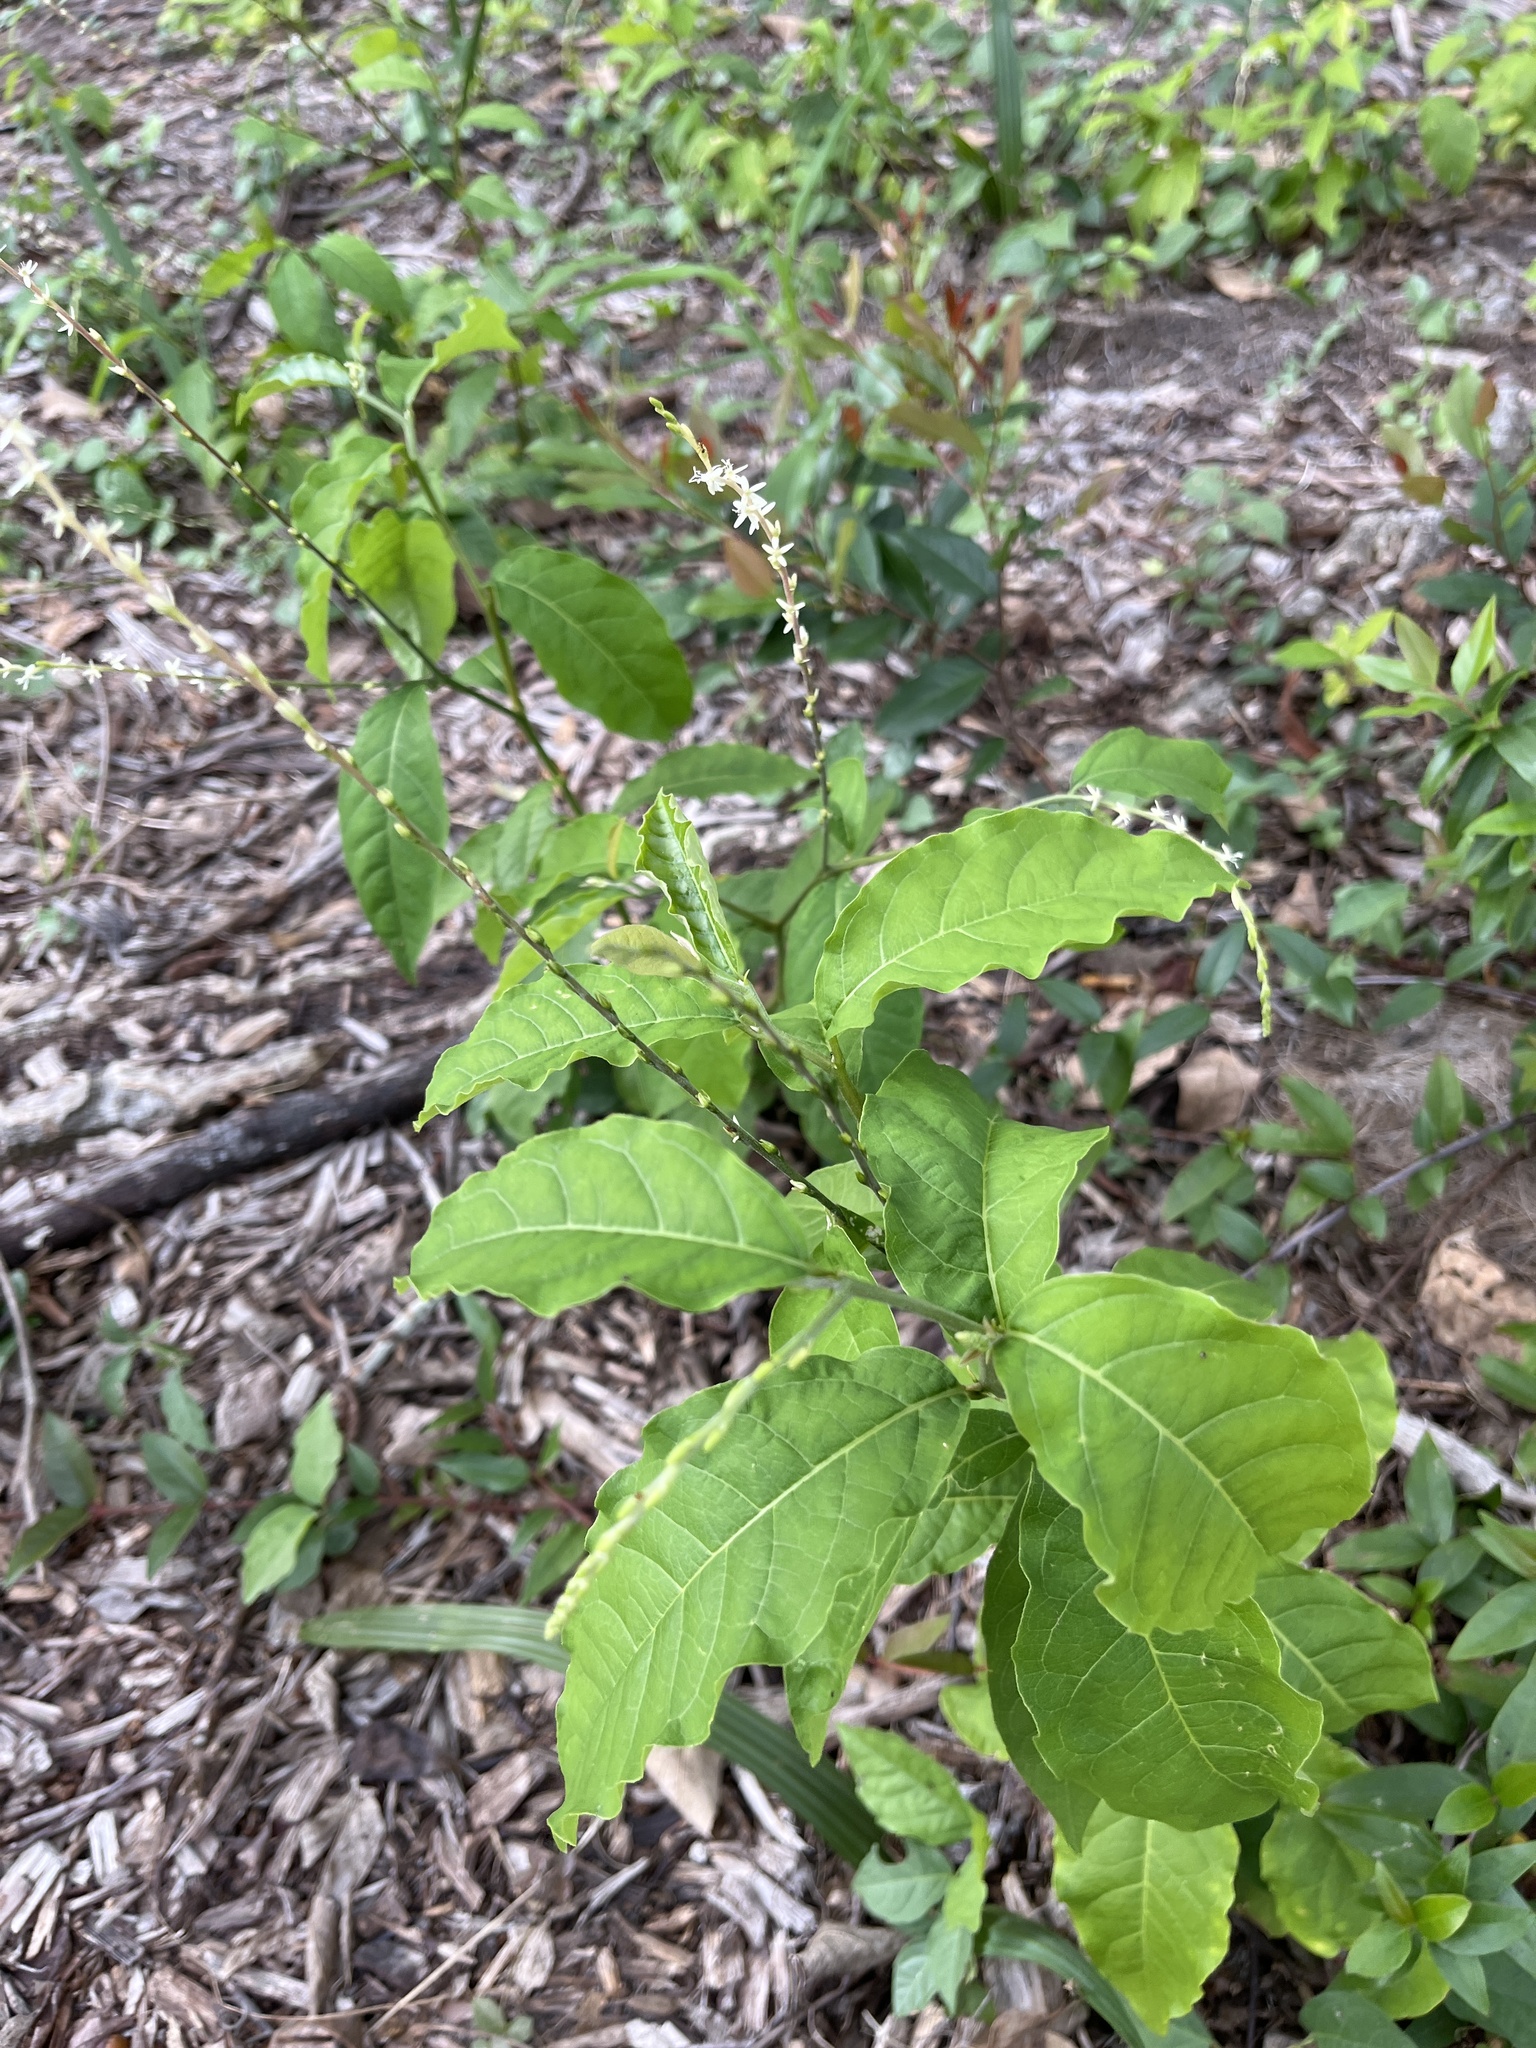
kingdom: Plantae
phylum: Tracheophyta
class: Magnoliopsida
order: Caryophyllales
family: Phytolaccaceae
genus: Petiveria
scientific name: Petiveria alliacea
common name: Garlicweed
